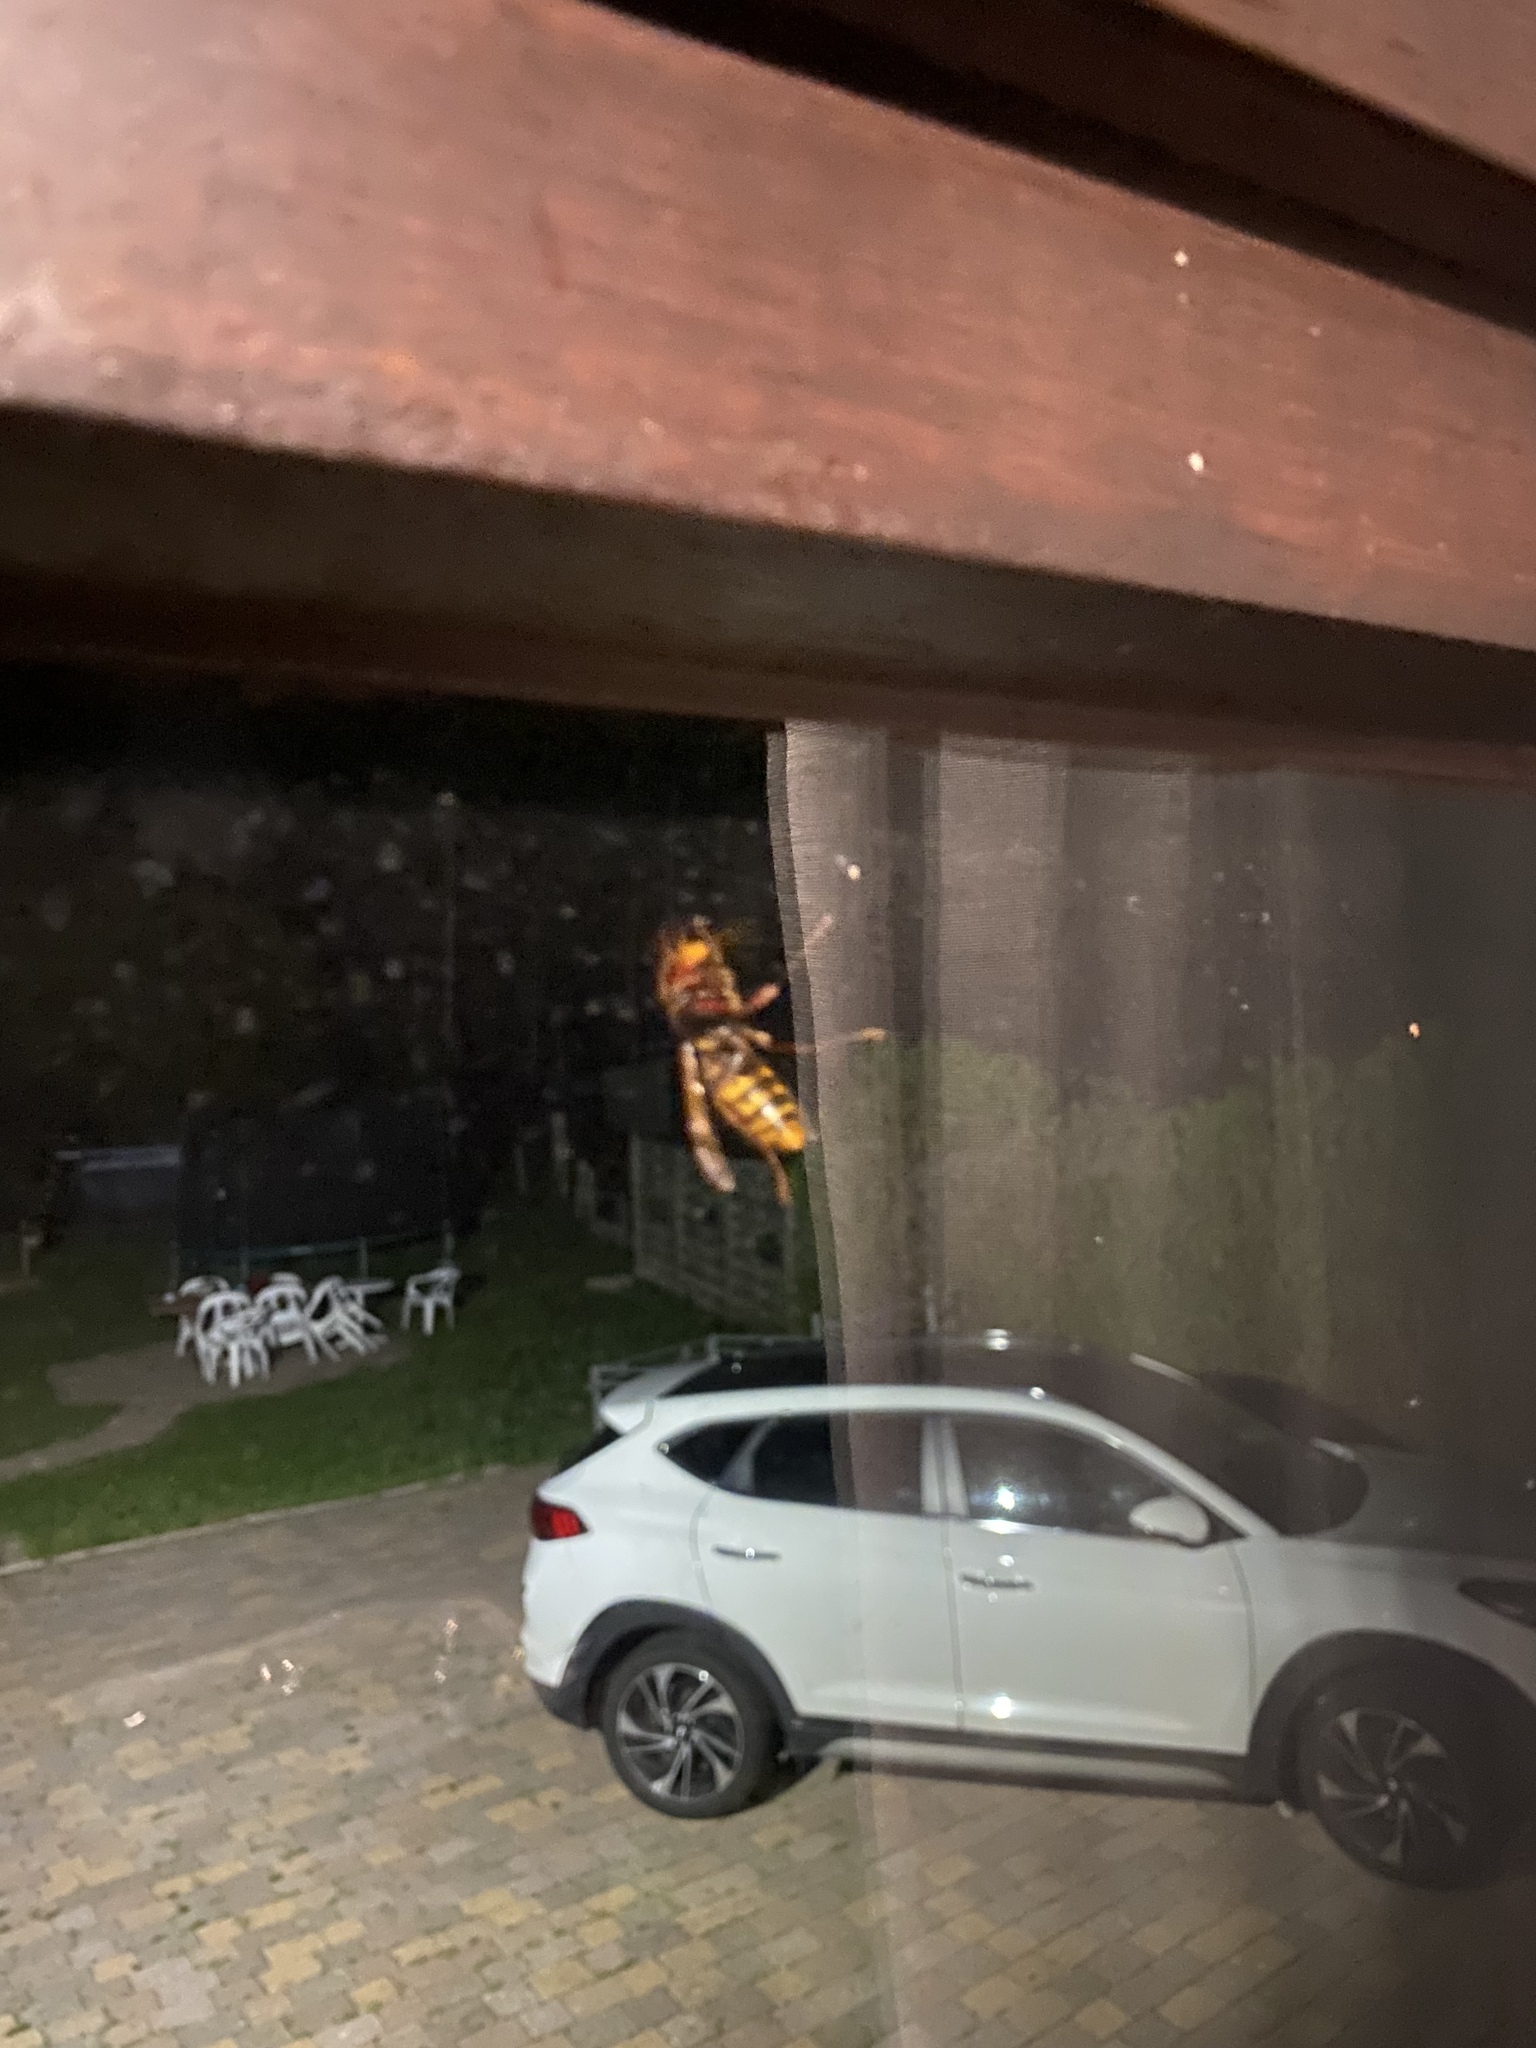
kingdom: Animalia
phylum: Arthropoda
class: Insecta
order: Hymenoptera
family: Vespidae
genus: Vespa
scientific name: Vespa crabro
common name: Hornet
